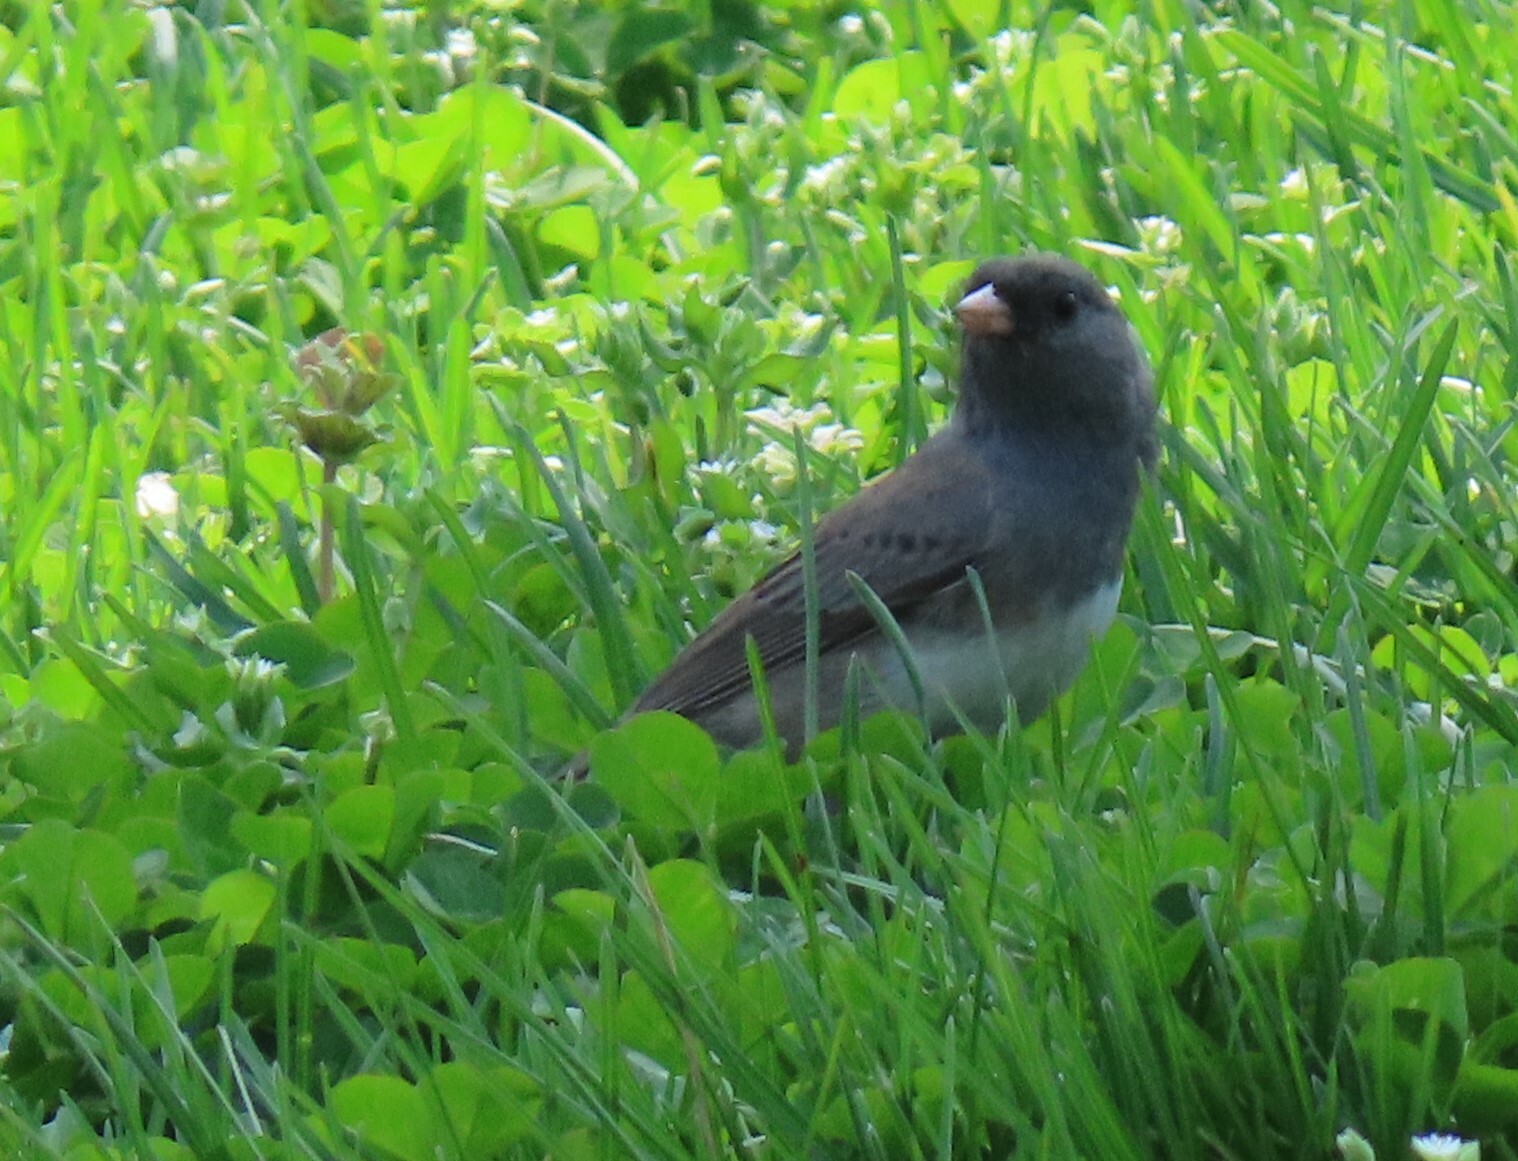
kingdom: Animalia
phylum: Chordata
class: Aves
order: Passeriformes
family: Passerellidae
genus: Junco
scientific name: Junco hyemalis
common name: Dark-eyed junco
